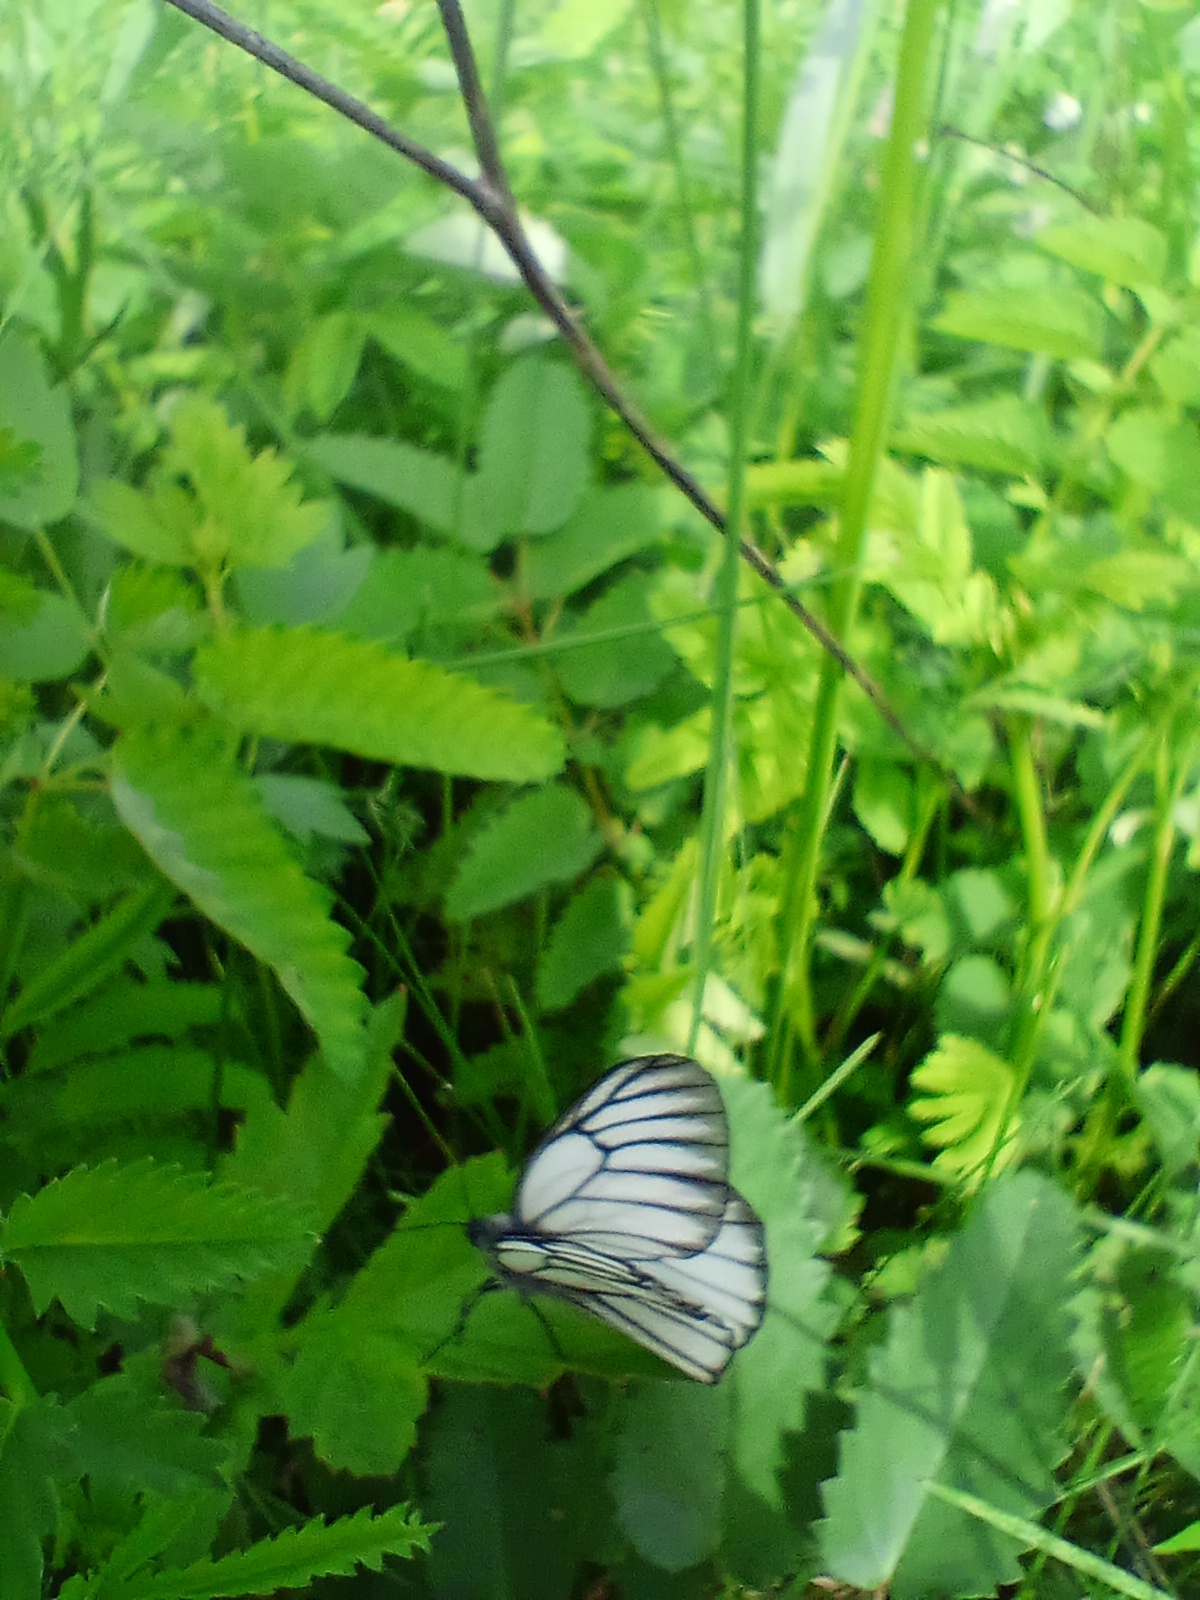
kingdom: Animalia
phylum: Arthropoda
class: Insecta
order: Lepidoptera
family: Pieridae
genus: Aporia
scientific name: Aporia crataegi
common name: Black-veined white
